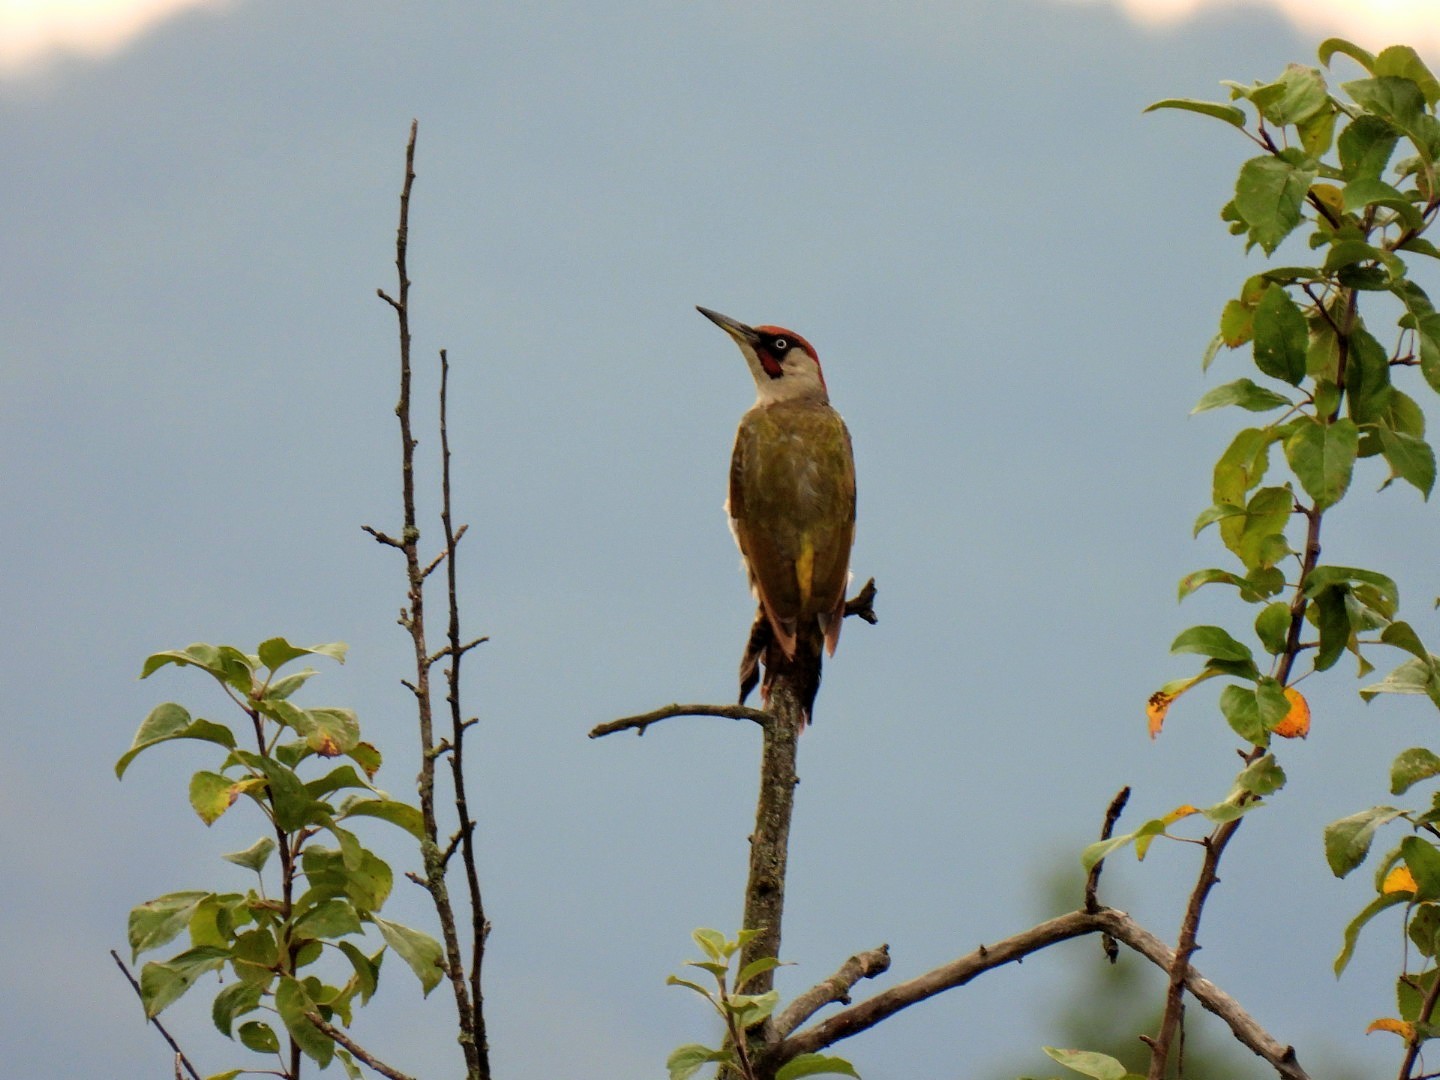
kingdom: Animalia
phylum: Chordata
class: Aves
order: Piciformes
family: Picidae
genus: Picus
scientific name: Picus viridis
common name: European green woodpecker
